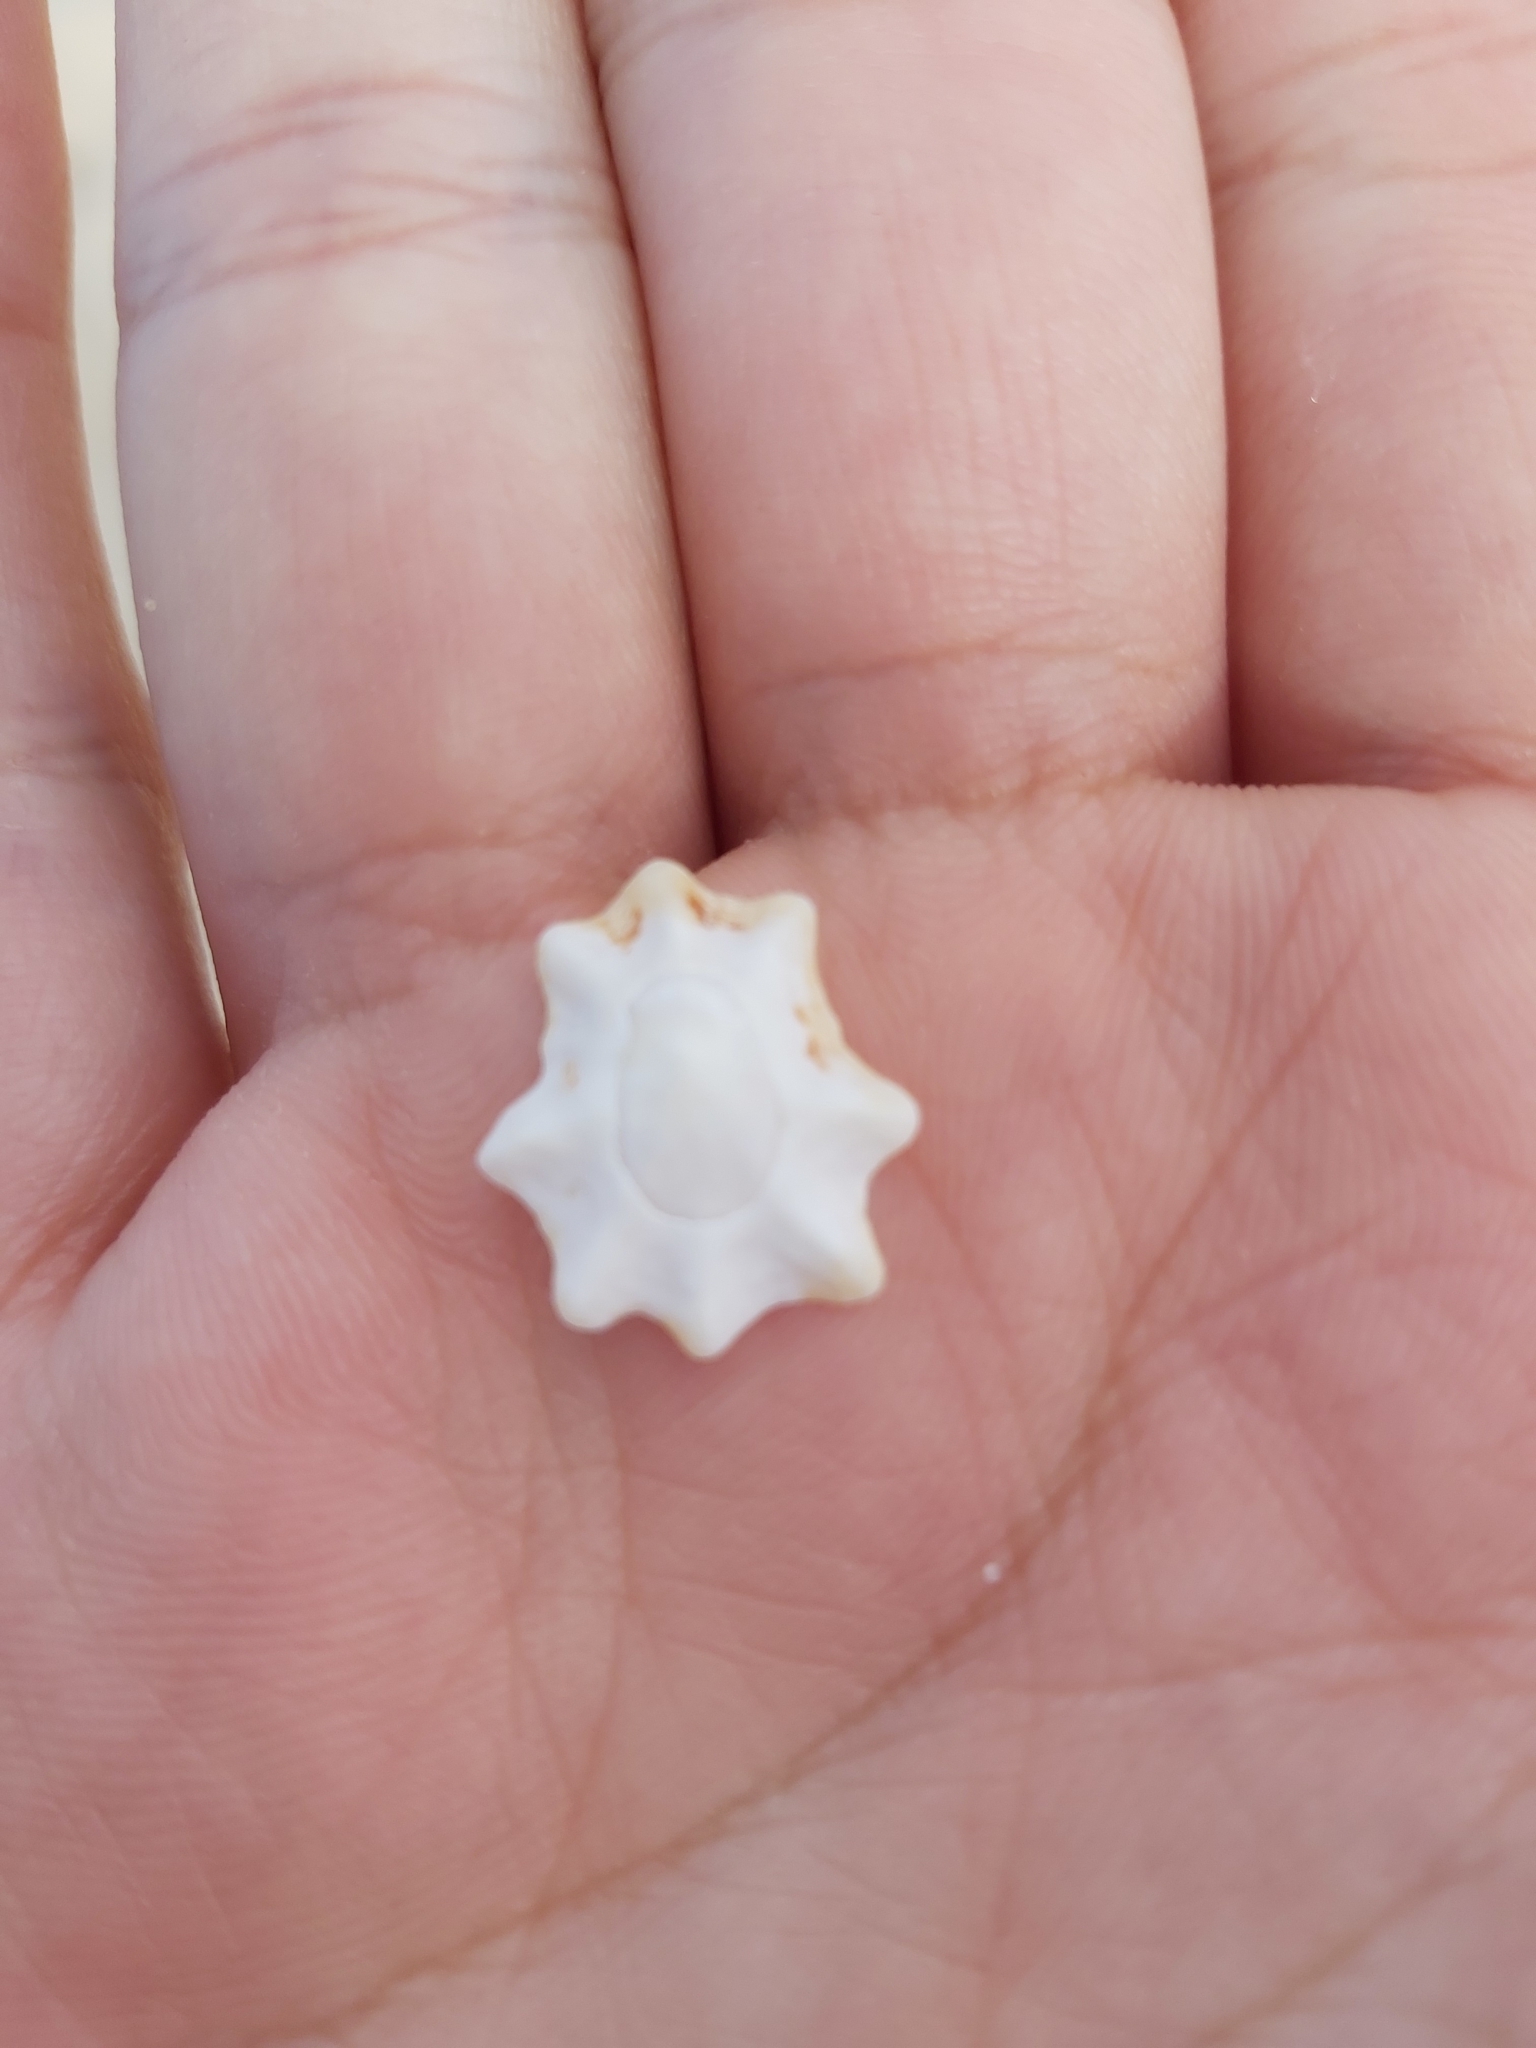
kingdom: Animalia
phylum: Mollusca
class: Gastropoda
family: Patellidae
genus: Scutellastra
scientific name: Scutellastra chapmani
